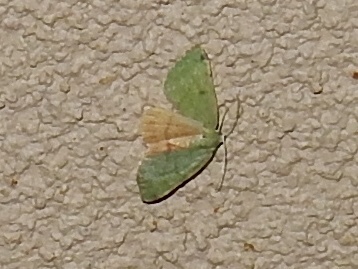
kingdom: Animalia
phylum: Arthropoda
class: Insecta
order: Lepidoptera
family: Geometridae
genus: Chloraspilates
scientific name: Chloraspilates bicoloraria
